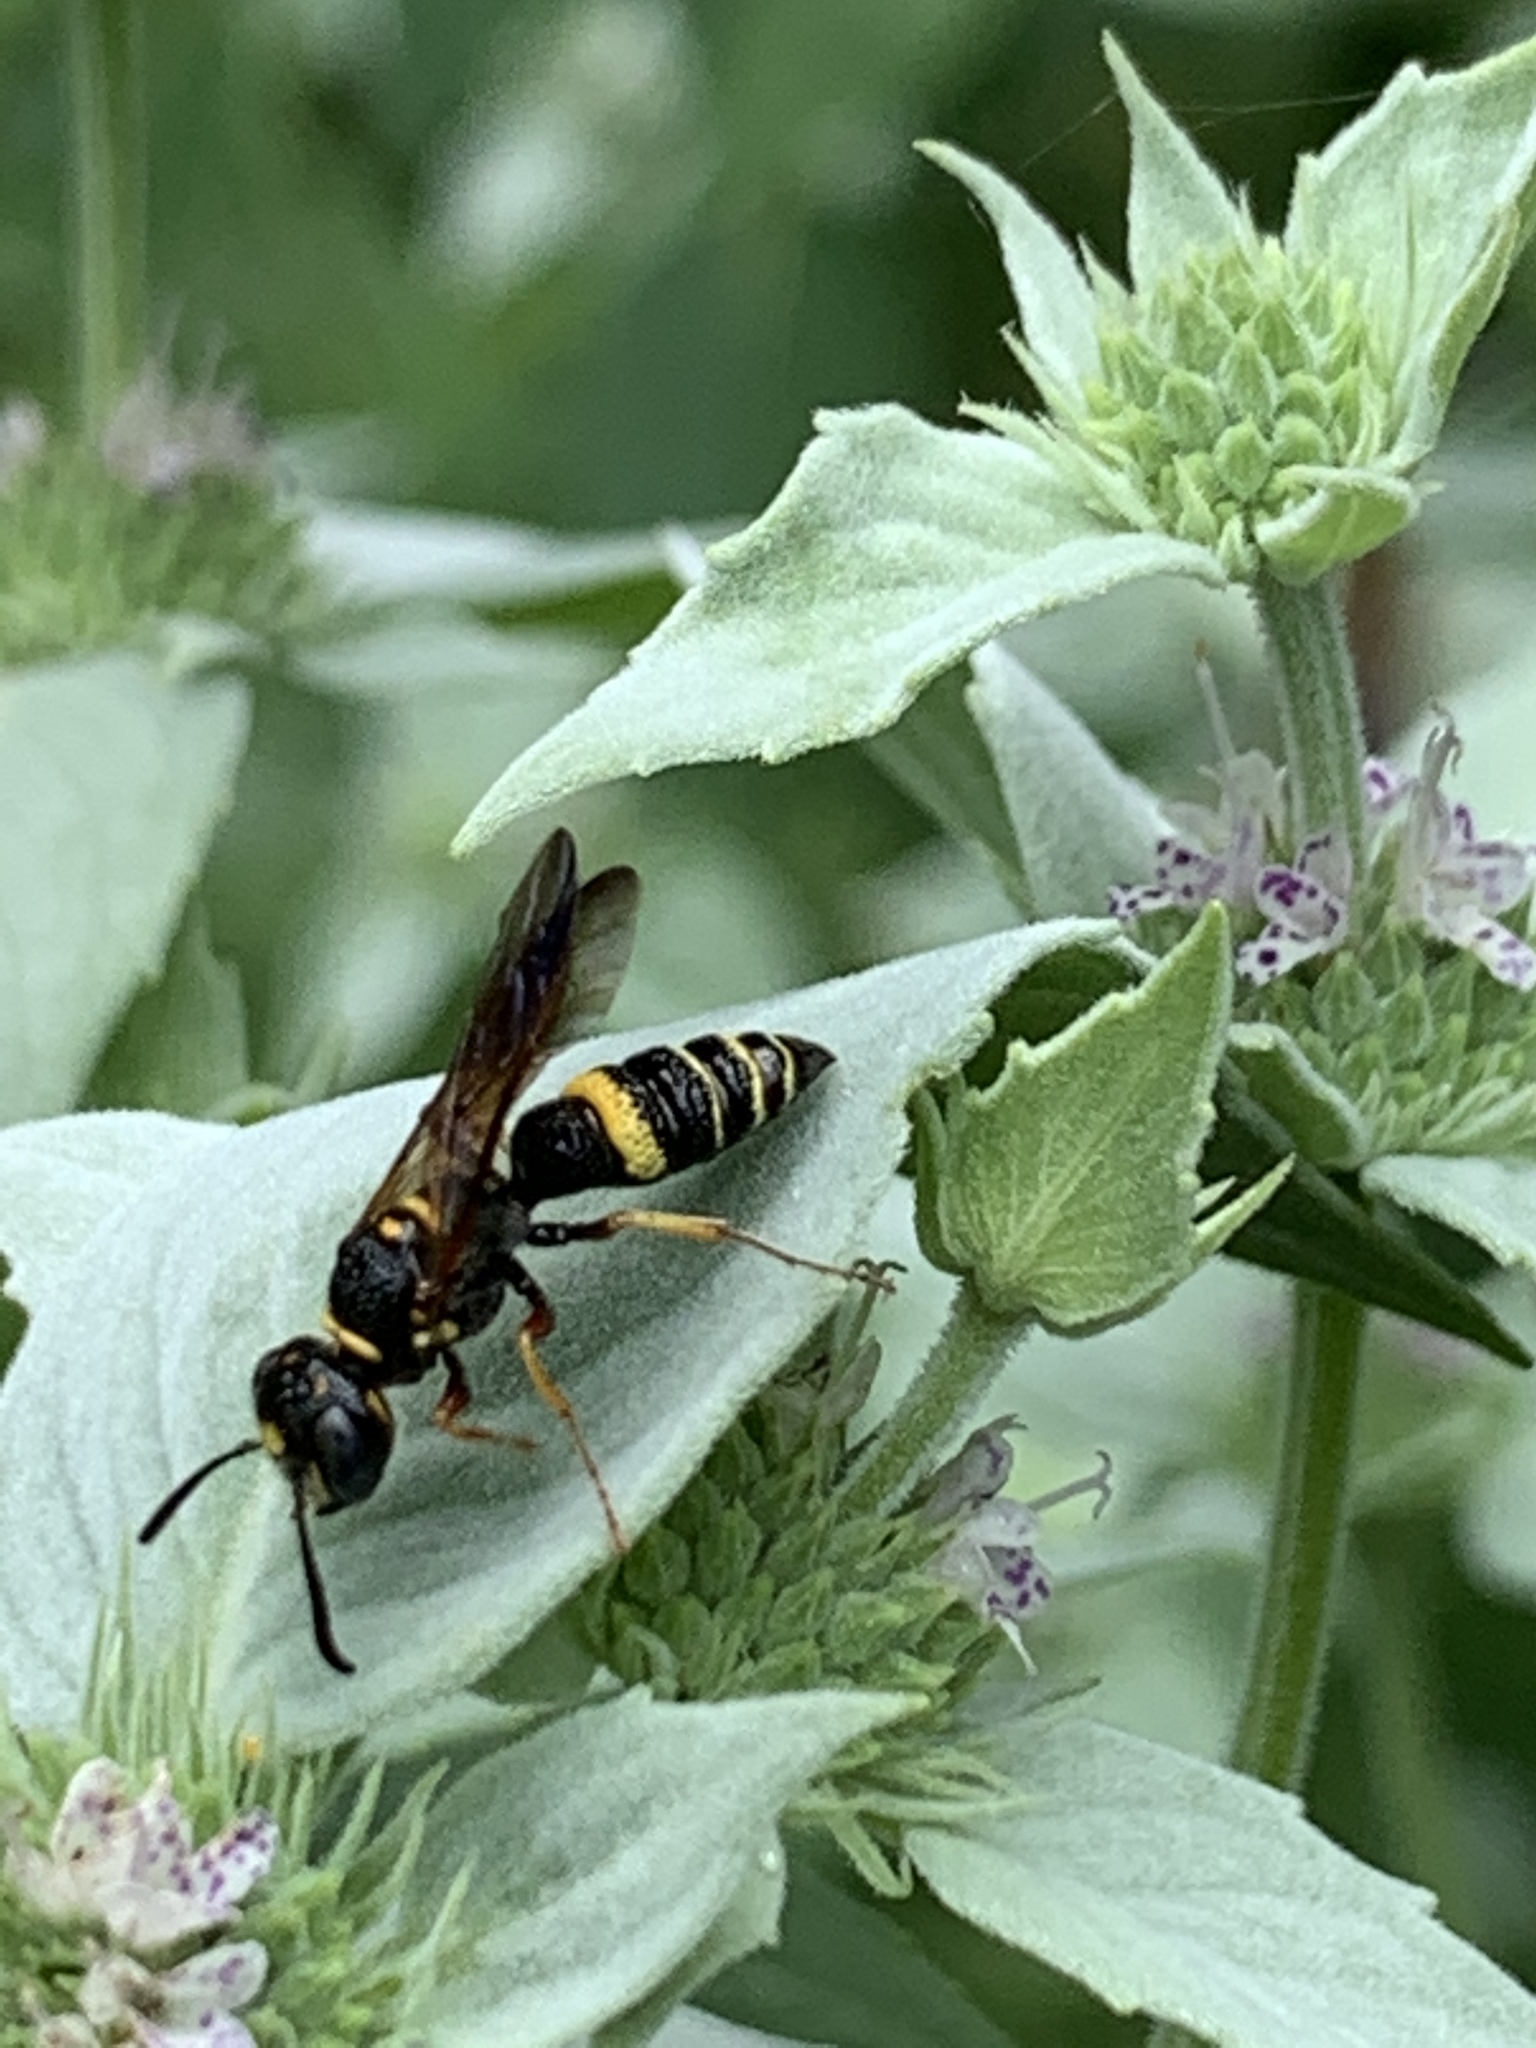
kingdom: Animalia
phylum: Arthropoda
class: Insecta
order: Hymenoptera
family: Crabronidae
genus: Philanthus
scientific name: Philanthus gibbosus
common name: Humped beewolf
